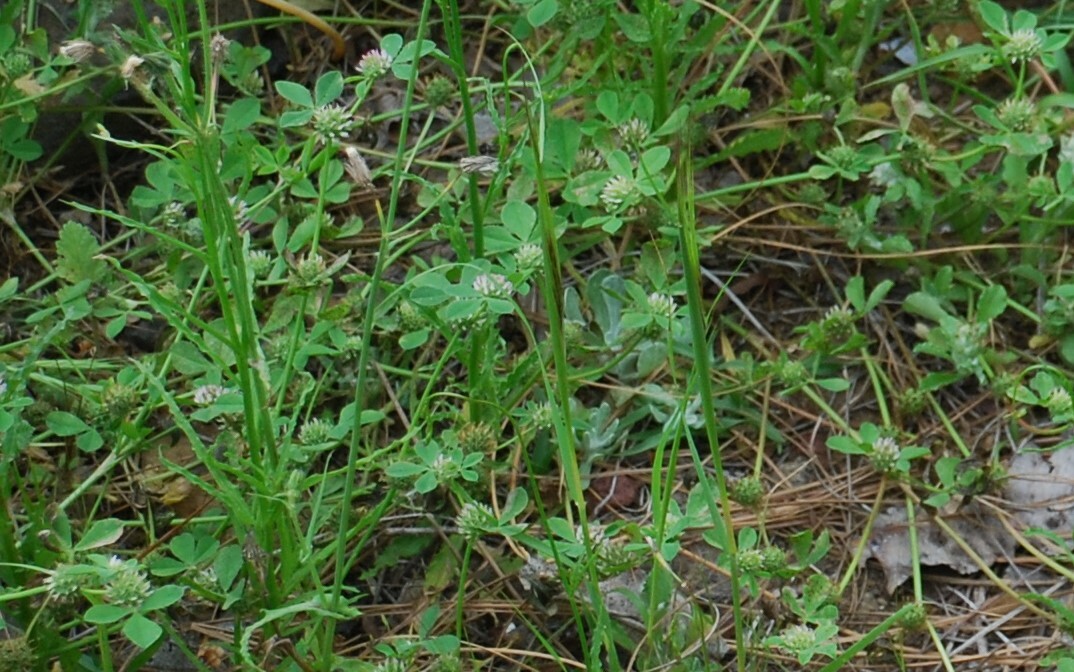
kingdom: Plantae
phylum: Tracheophyta
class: Magnoliopsida
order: Fabales
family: Fabaceae
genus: Trifolium
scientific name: Trifolium glomeratum
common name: Clustered clover
